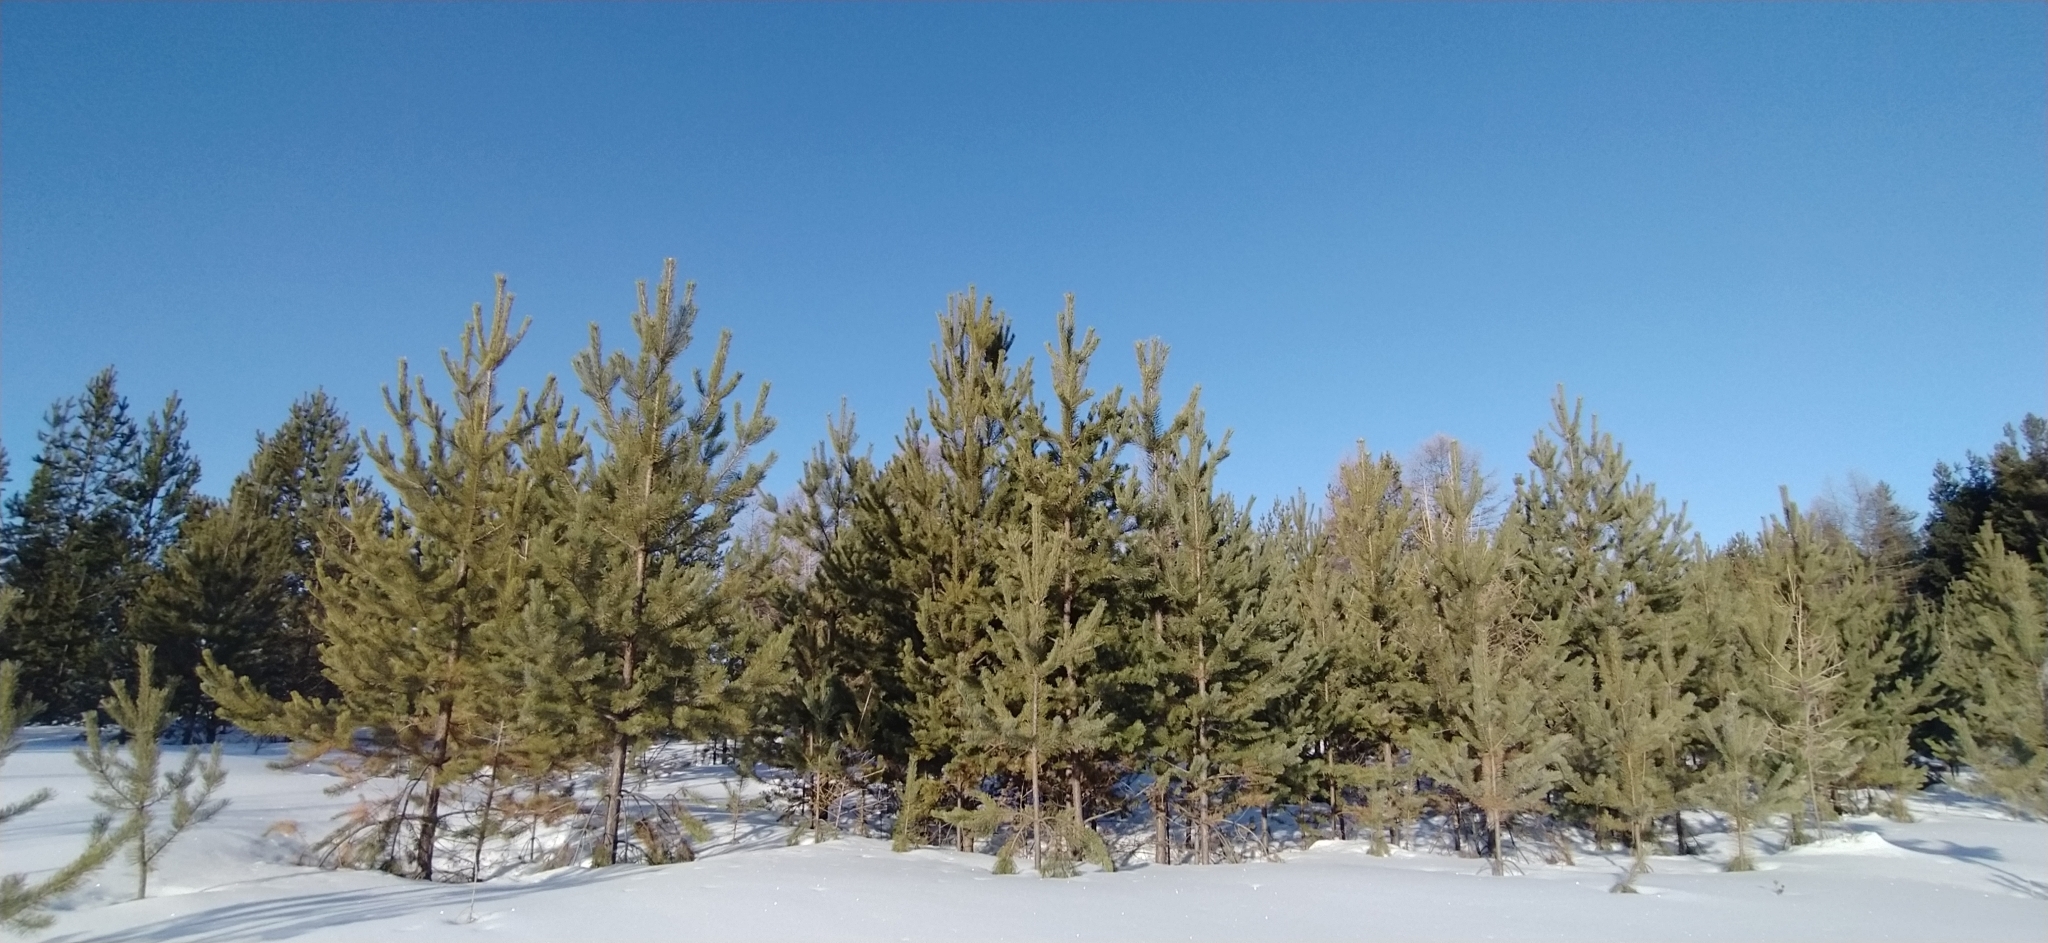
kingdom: Plantae
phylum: Tracheophyta
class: Pinopsida
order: Pinales
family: Pinaceae
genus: Pinus
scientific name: Pinus sylvestris
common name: Scots pine
